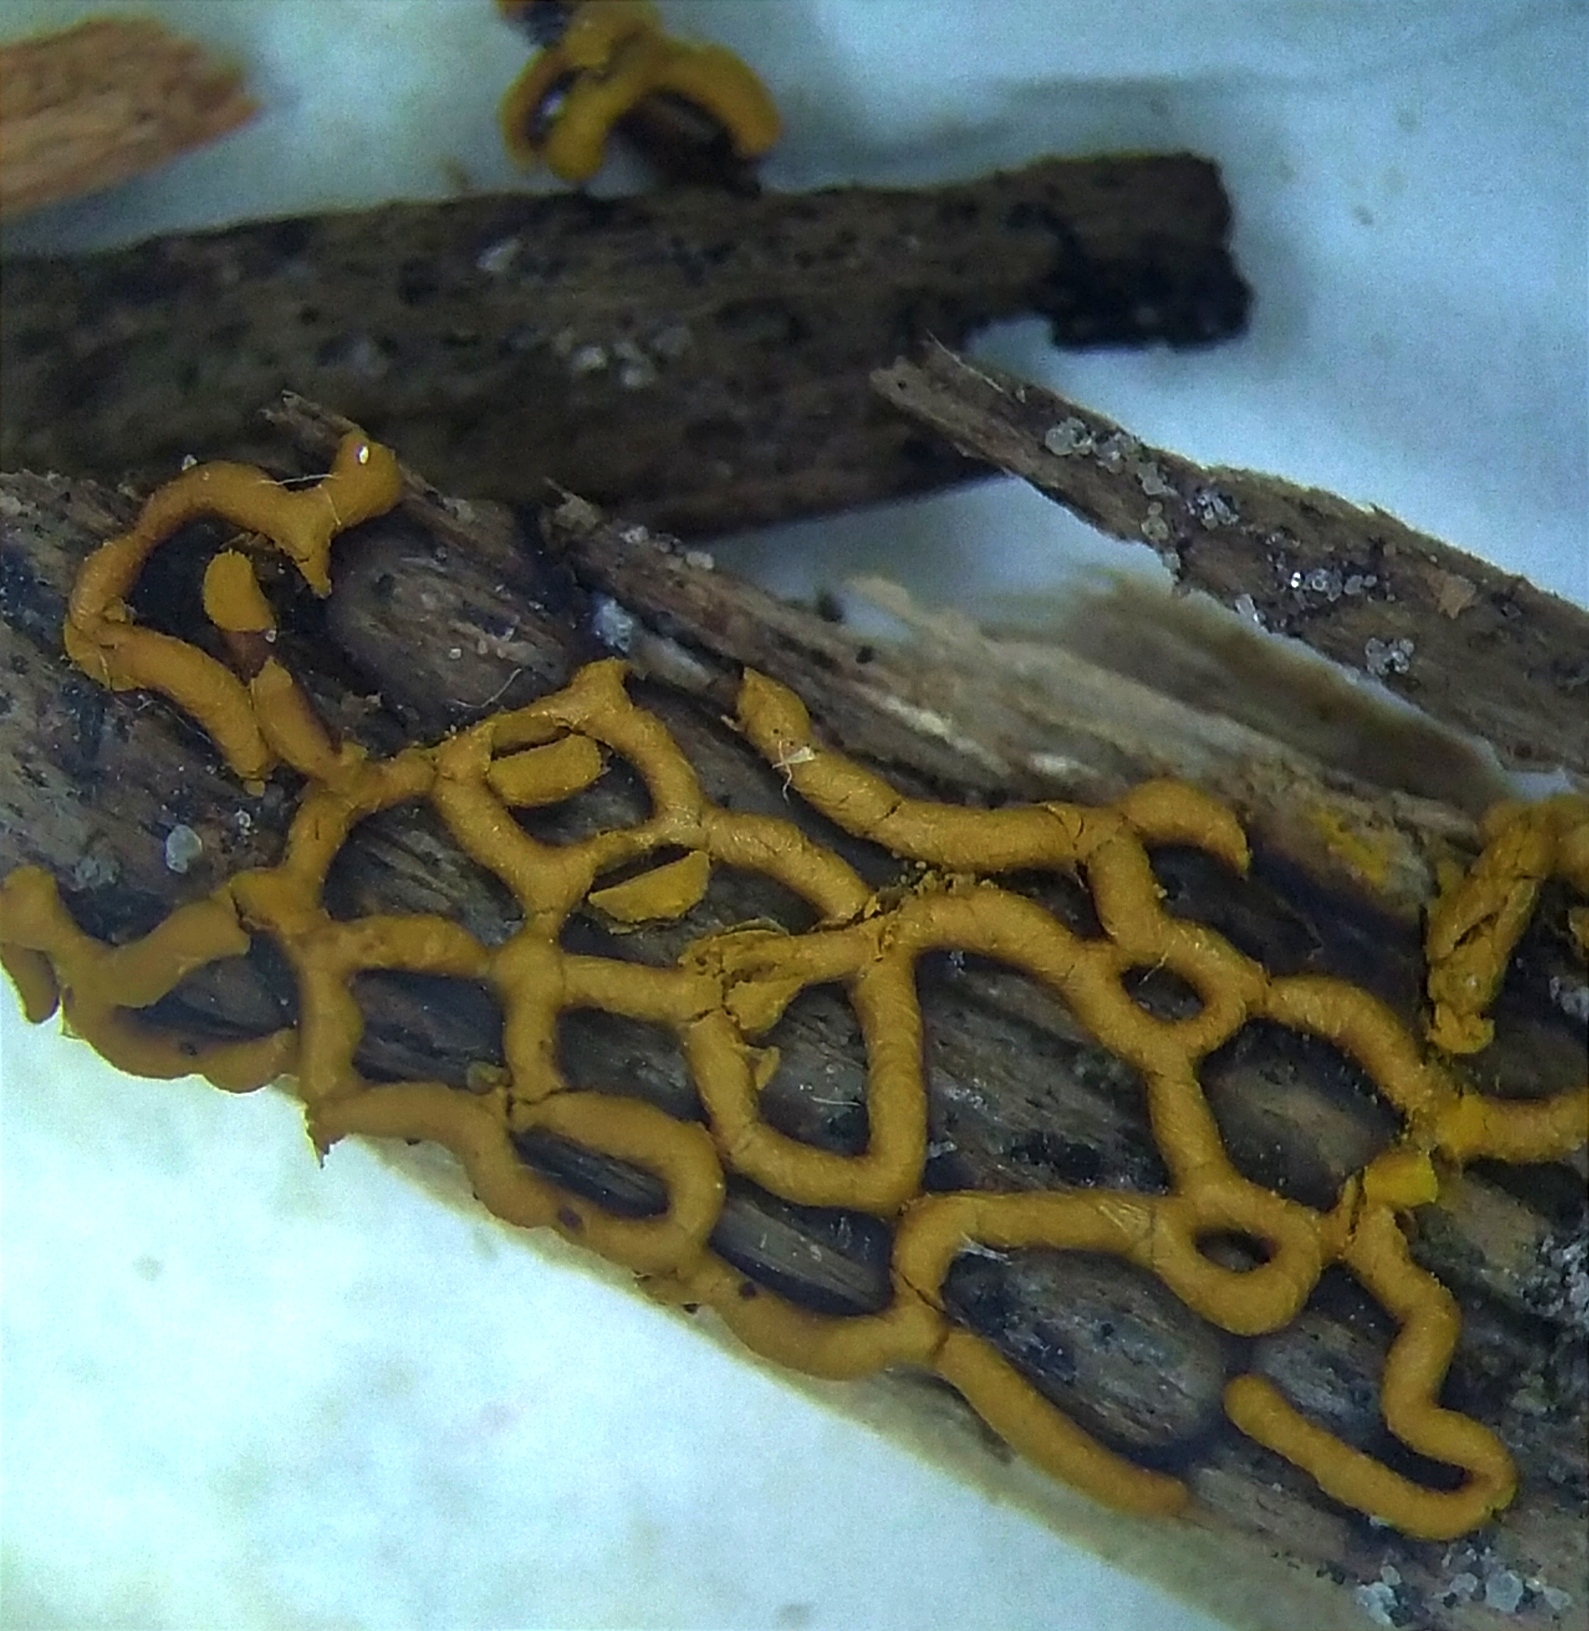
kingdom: Protozoa
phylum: Mycetozoa
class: Myxomycetes
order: Trichiales
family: Arcyriaceae
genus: Hemitrichia
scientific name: Hemitrichia serpula
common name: Pretzel slime mold
